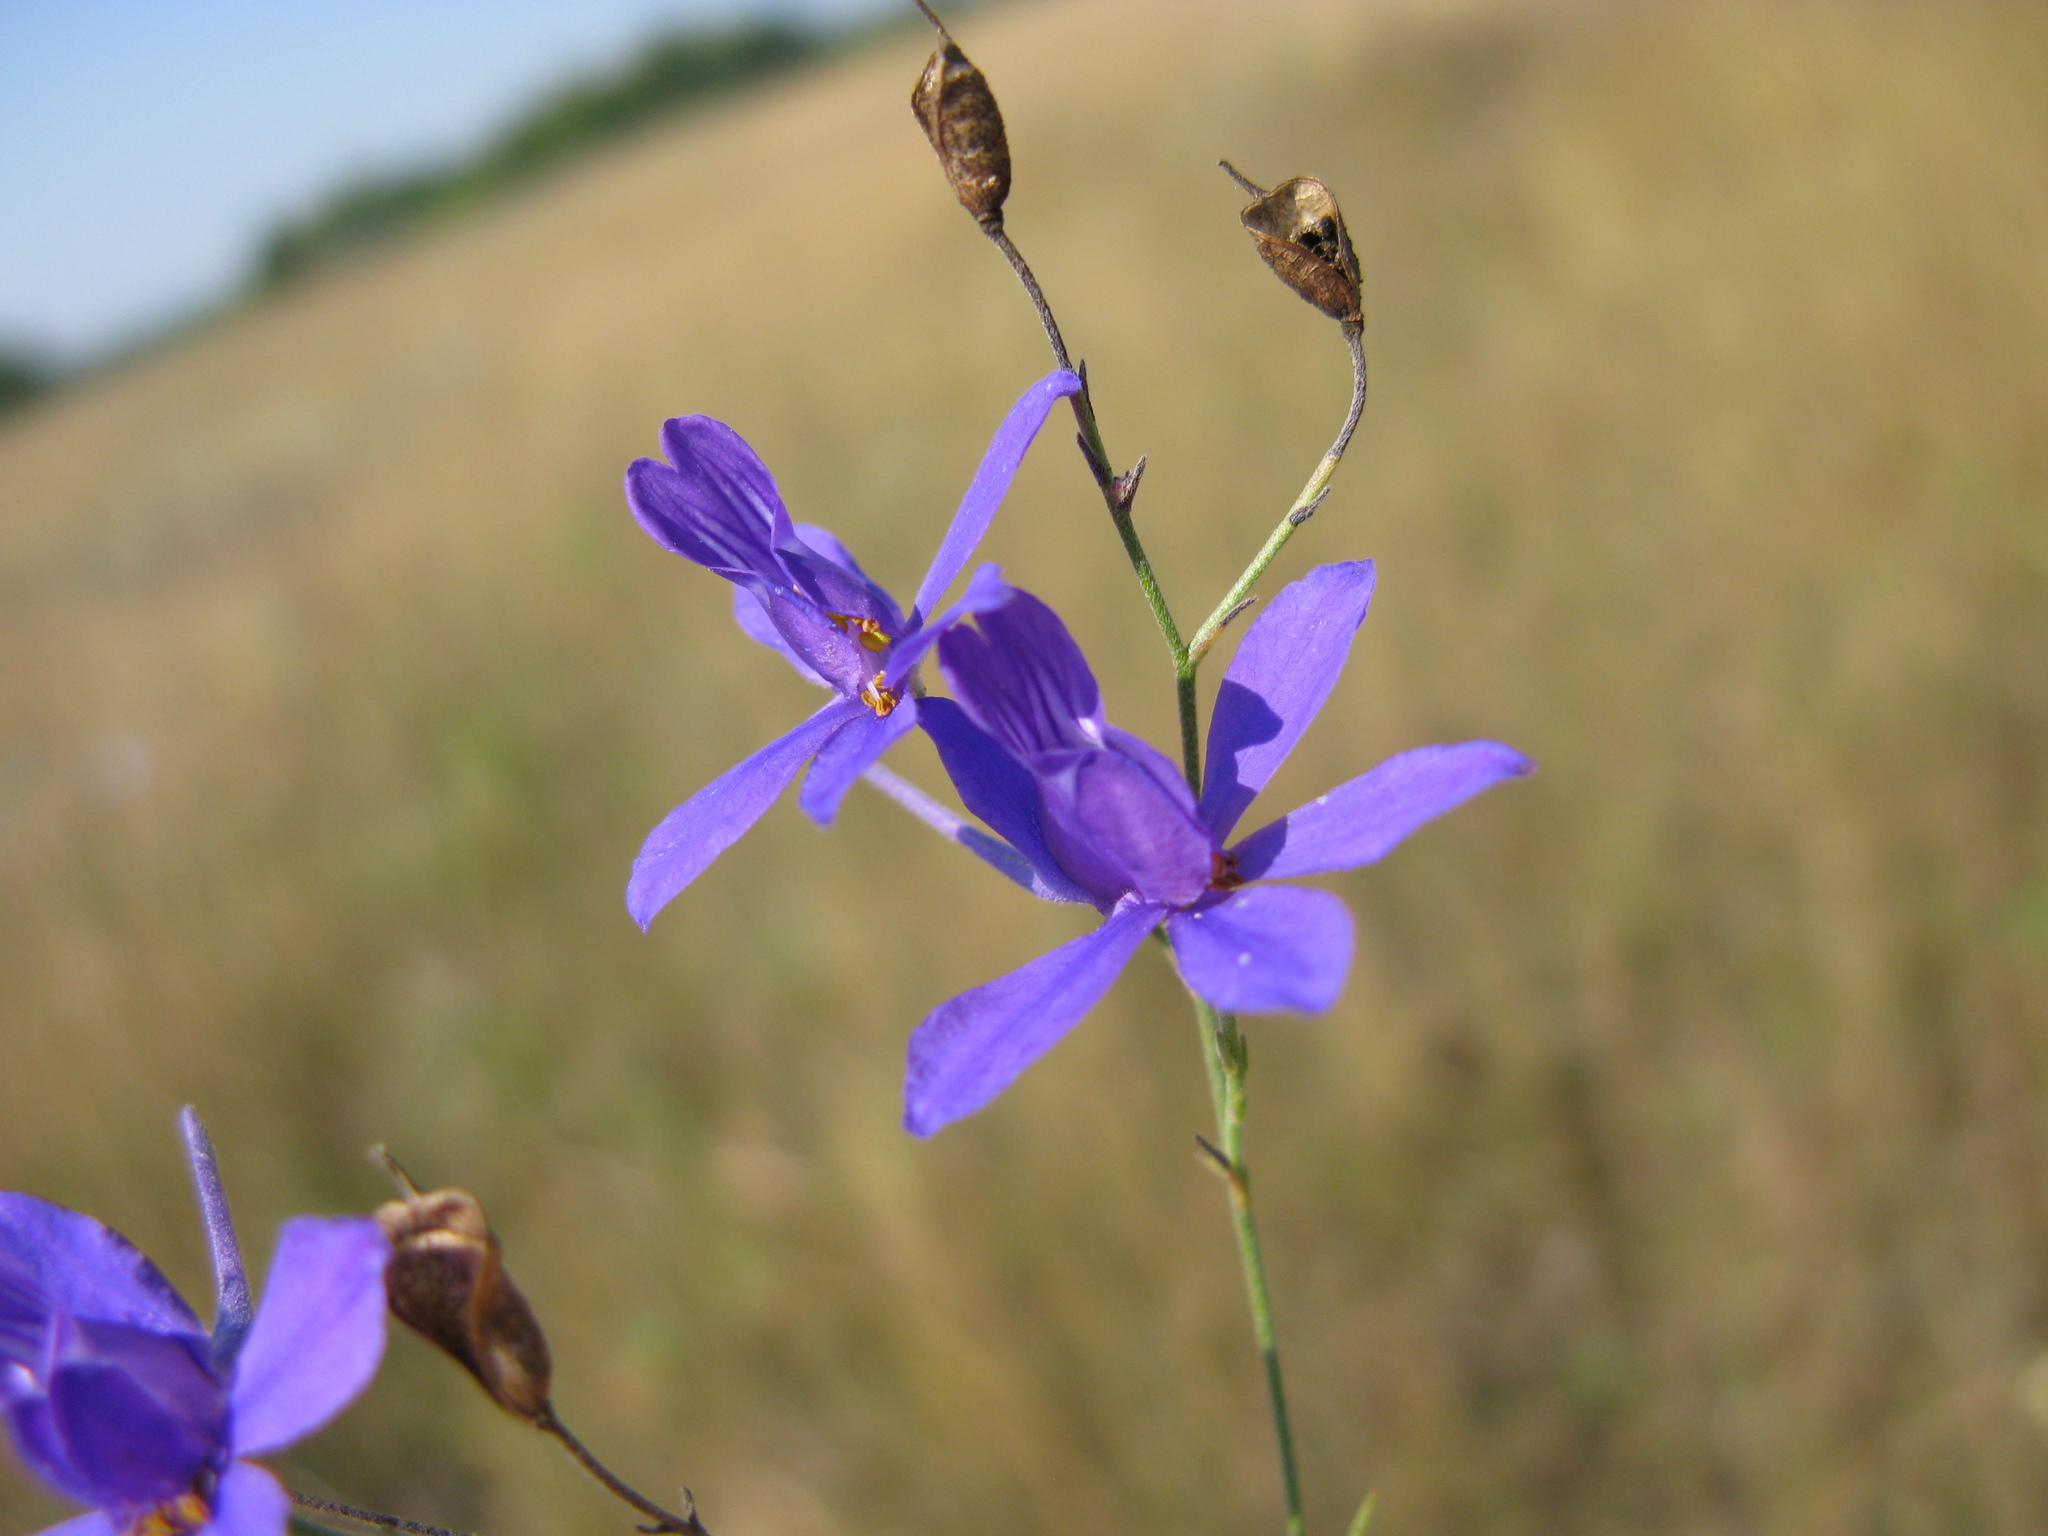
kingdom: Plantae
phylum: Tracheophyta
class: Magnoliopsida
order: Ranunculales
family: Ranunculaceae
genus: Delphinium
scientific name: Delphinium consolida
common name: Branching larkspur
